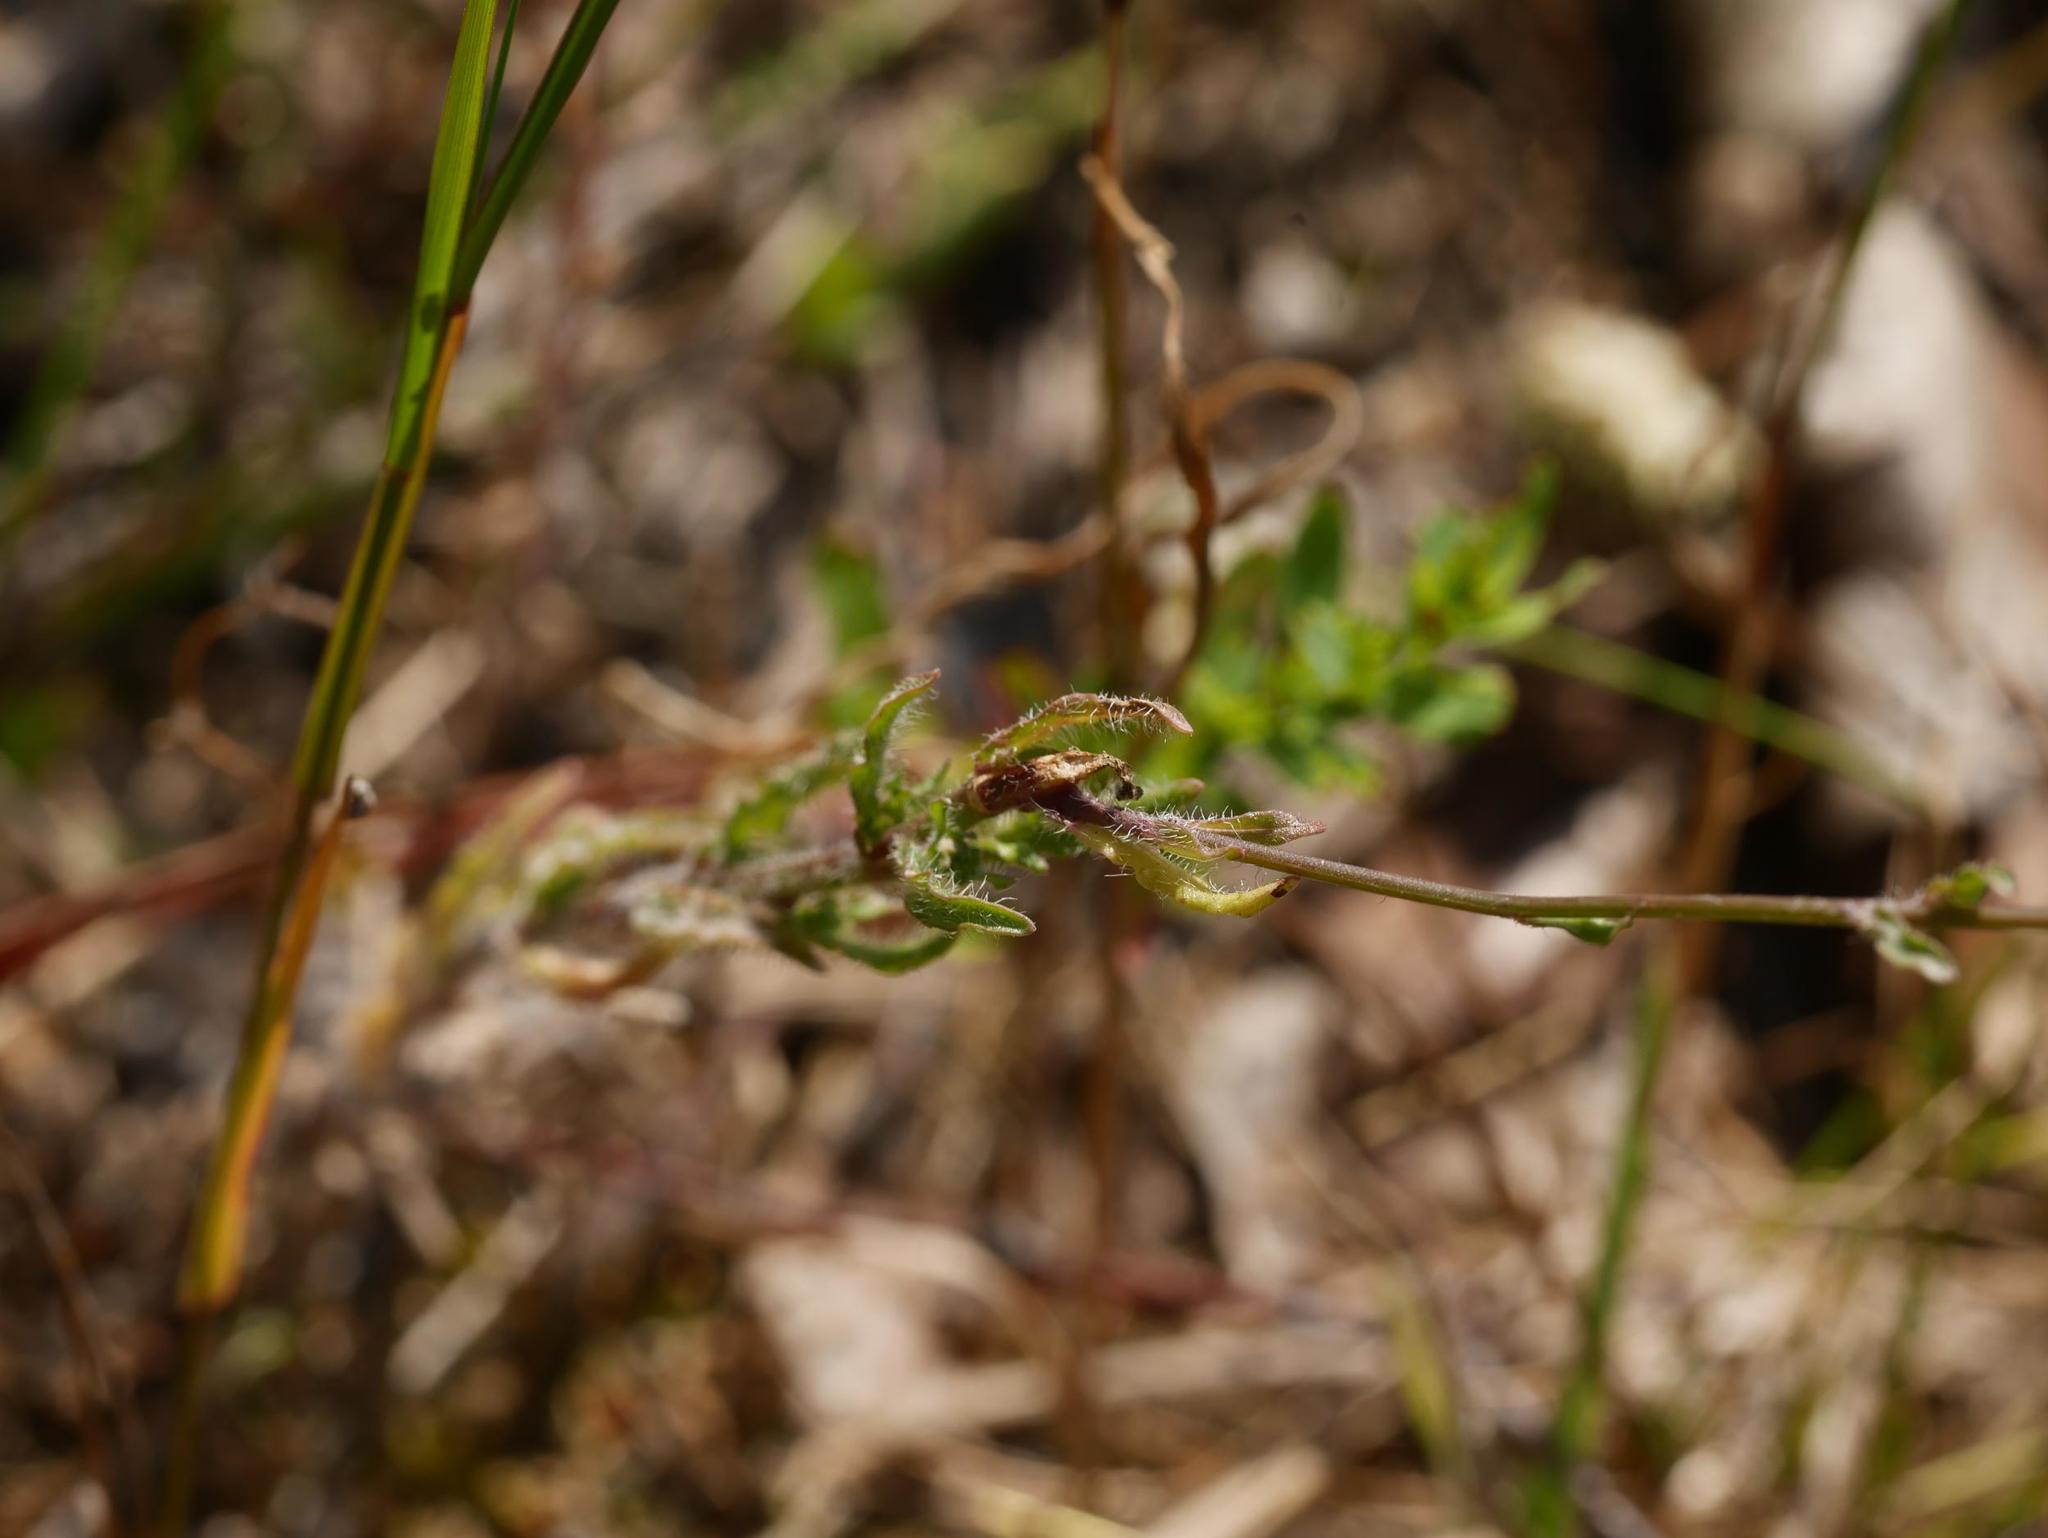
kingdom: Plantae
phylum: Tracheophyta
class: Magnoliopsida
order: Asterales
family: Campanulaceae
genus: Jasione
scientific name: Jasione montana
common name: Sheep's-bit
